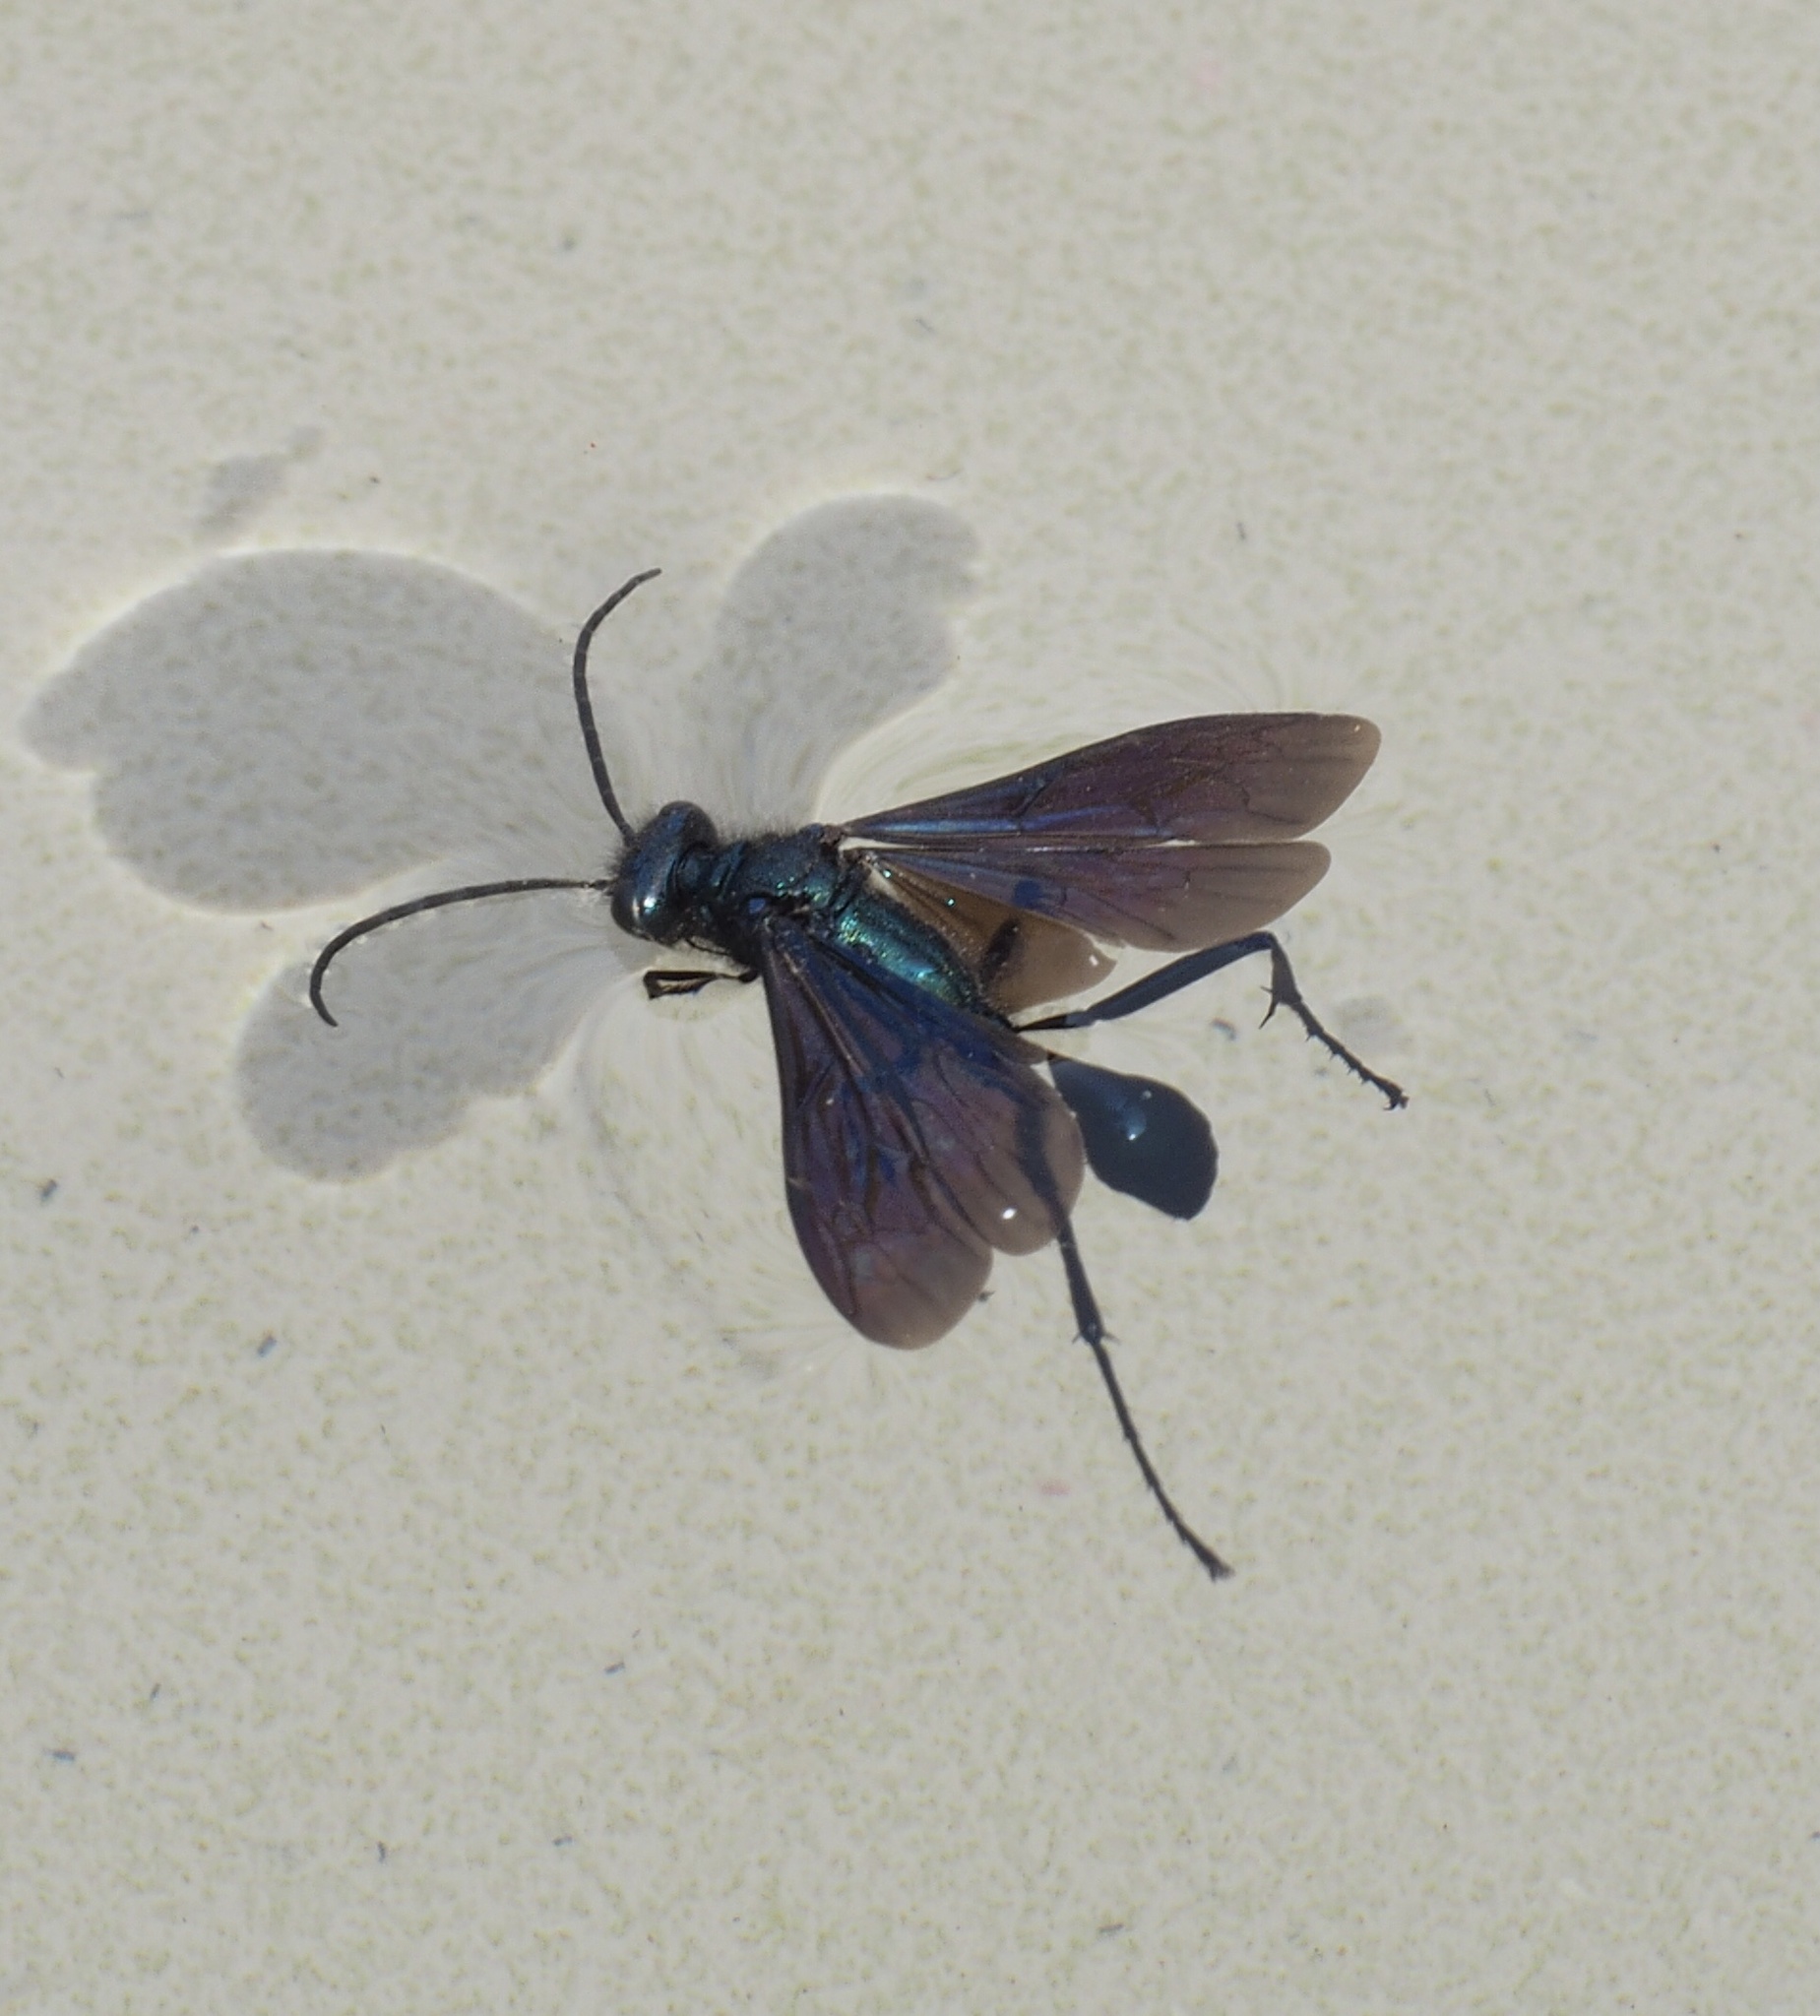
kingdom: Animalia
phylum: Arthropoda
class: Insecta
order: Hymenoptera
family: Sphecidae
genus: Chalybion
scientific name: Chalybion californicum
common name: Mud dauber
